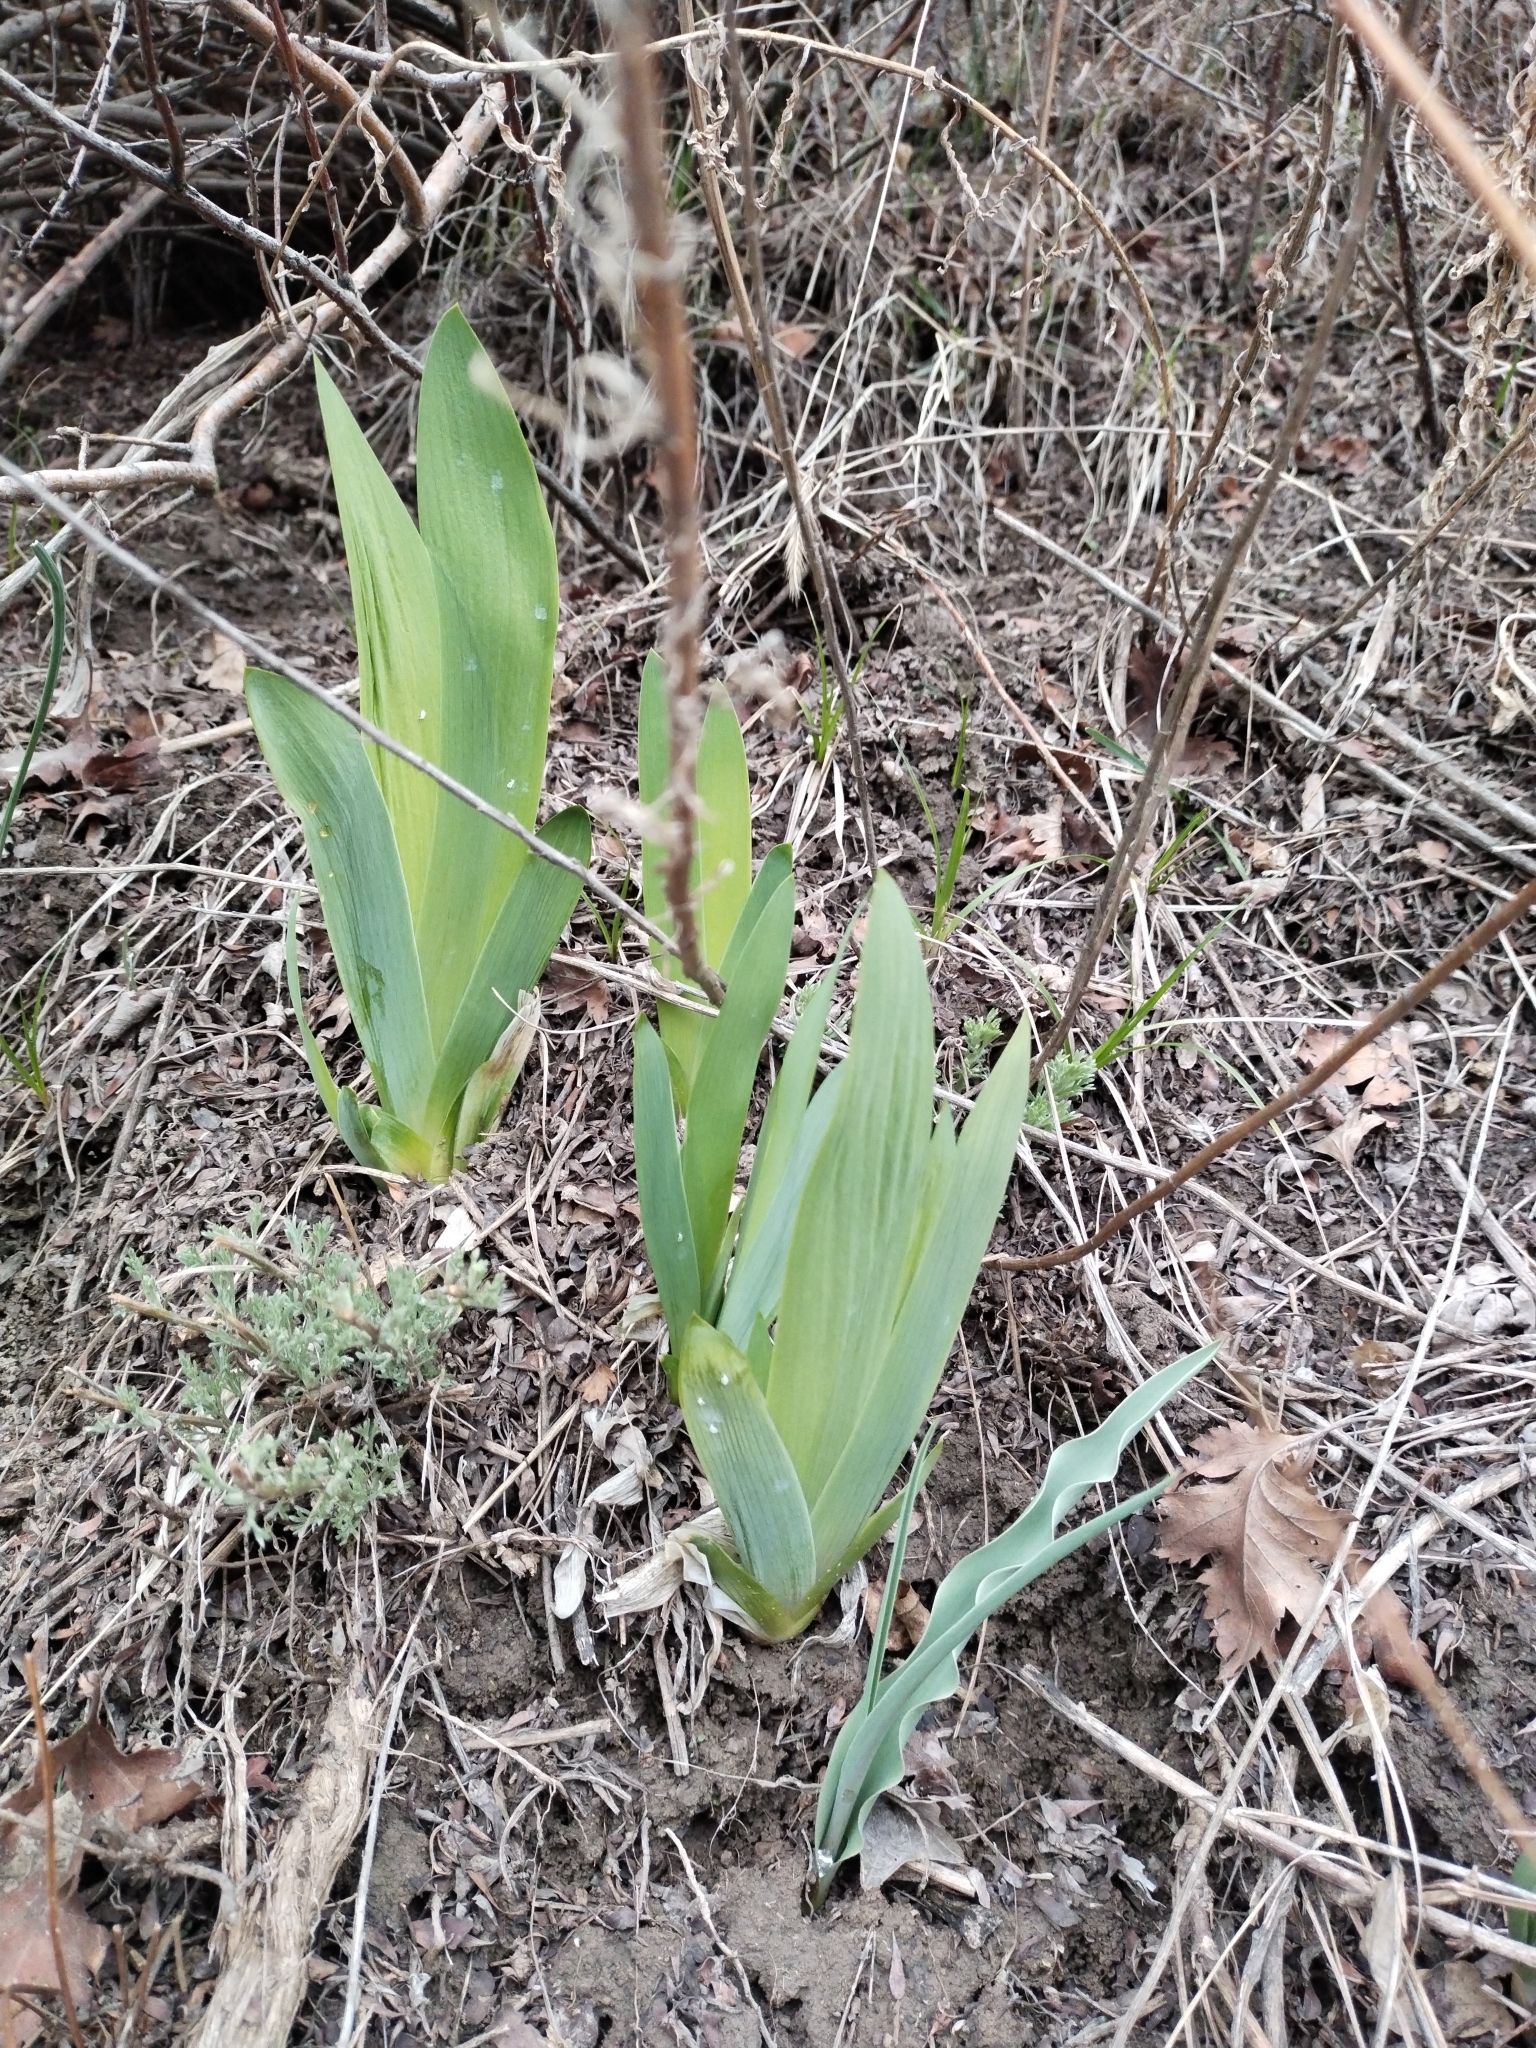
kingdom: Plantae
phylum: Tracheophyta
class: Liliopsida
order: Asparagales
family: Iridaceae
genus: Iris
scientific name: Iris alberti
